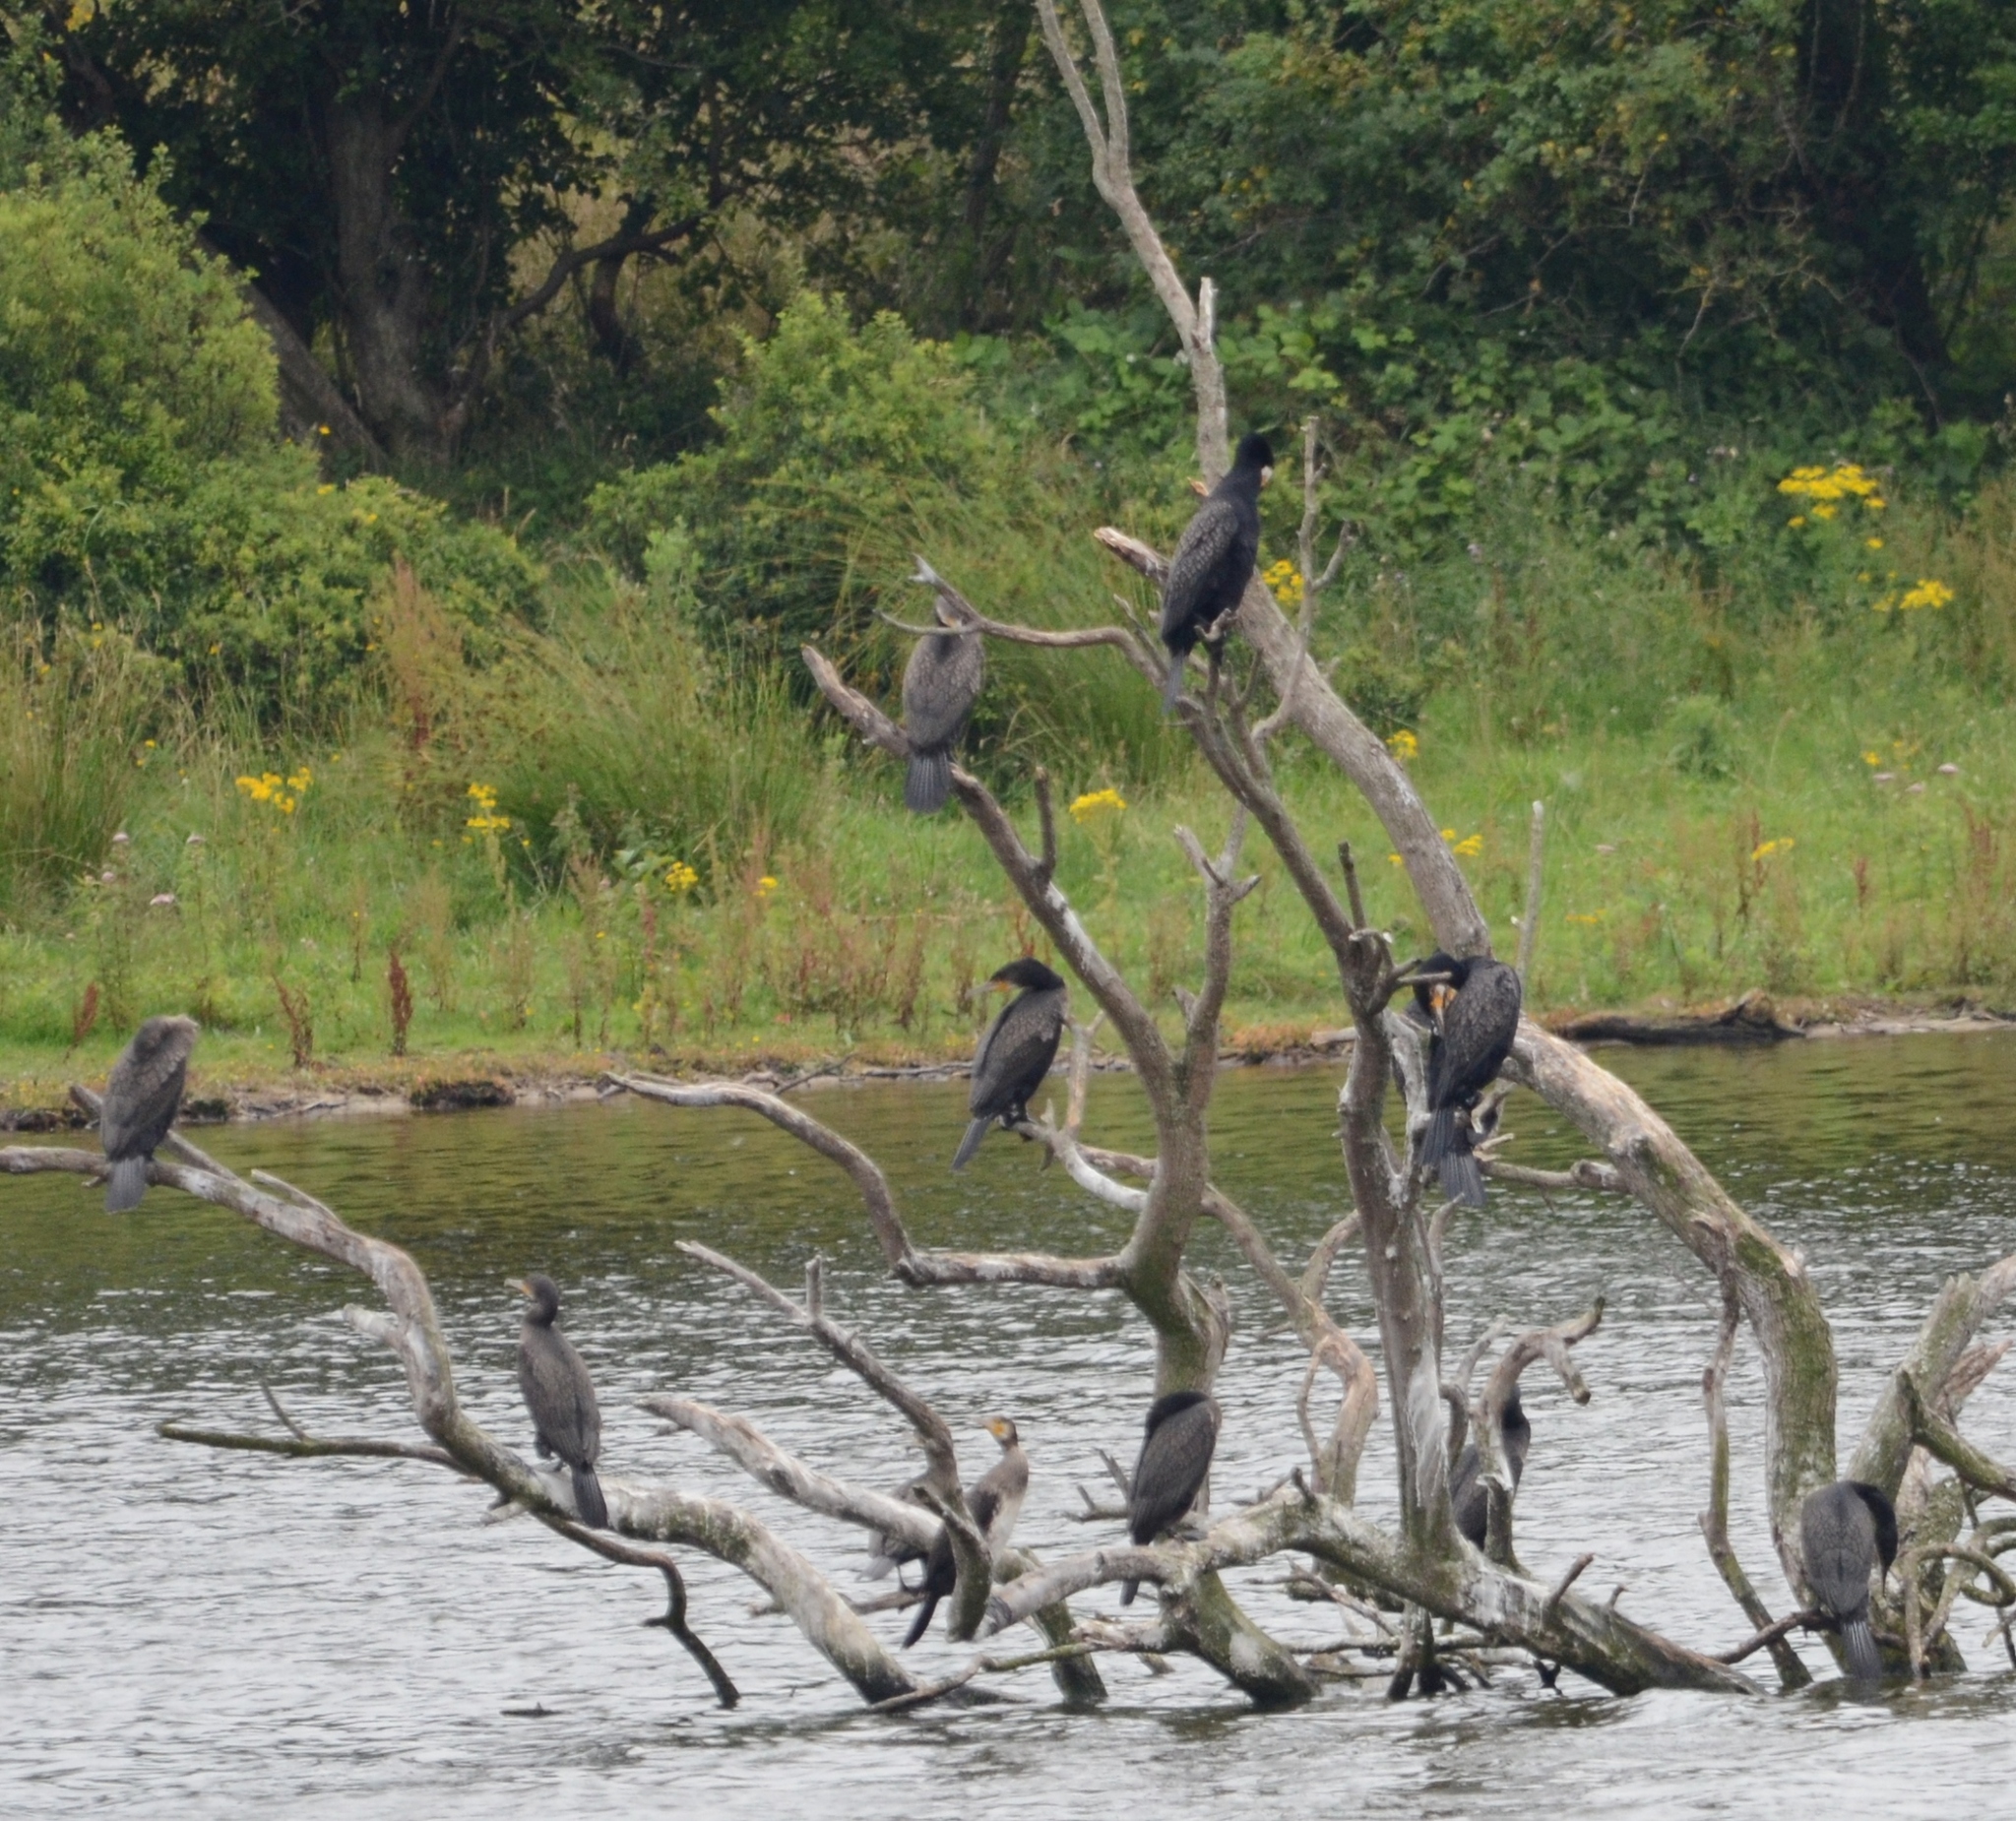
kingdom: Animalia
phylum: Chordata
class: Aves
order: Suliformes
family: Phalacrocoracidae
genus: Phalacrocorax
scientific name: Phalacrocorax carbo
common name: Great cormorant
